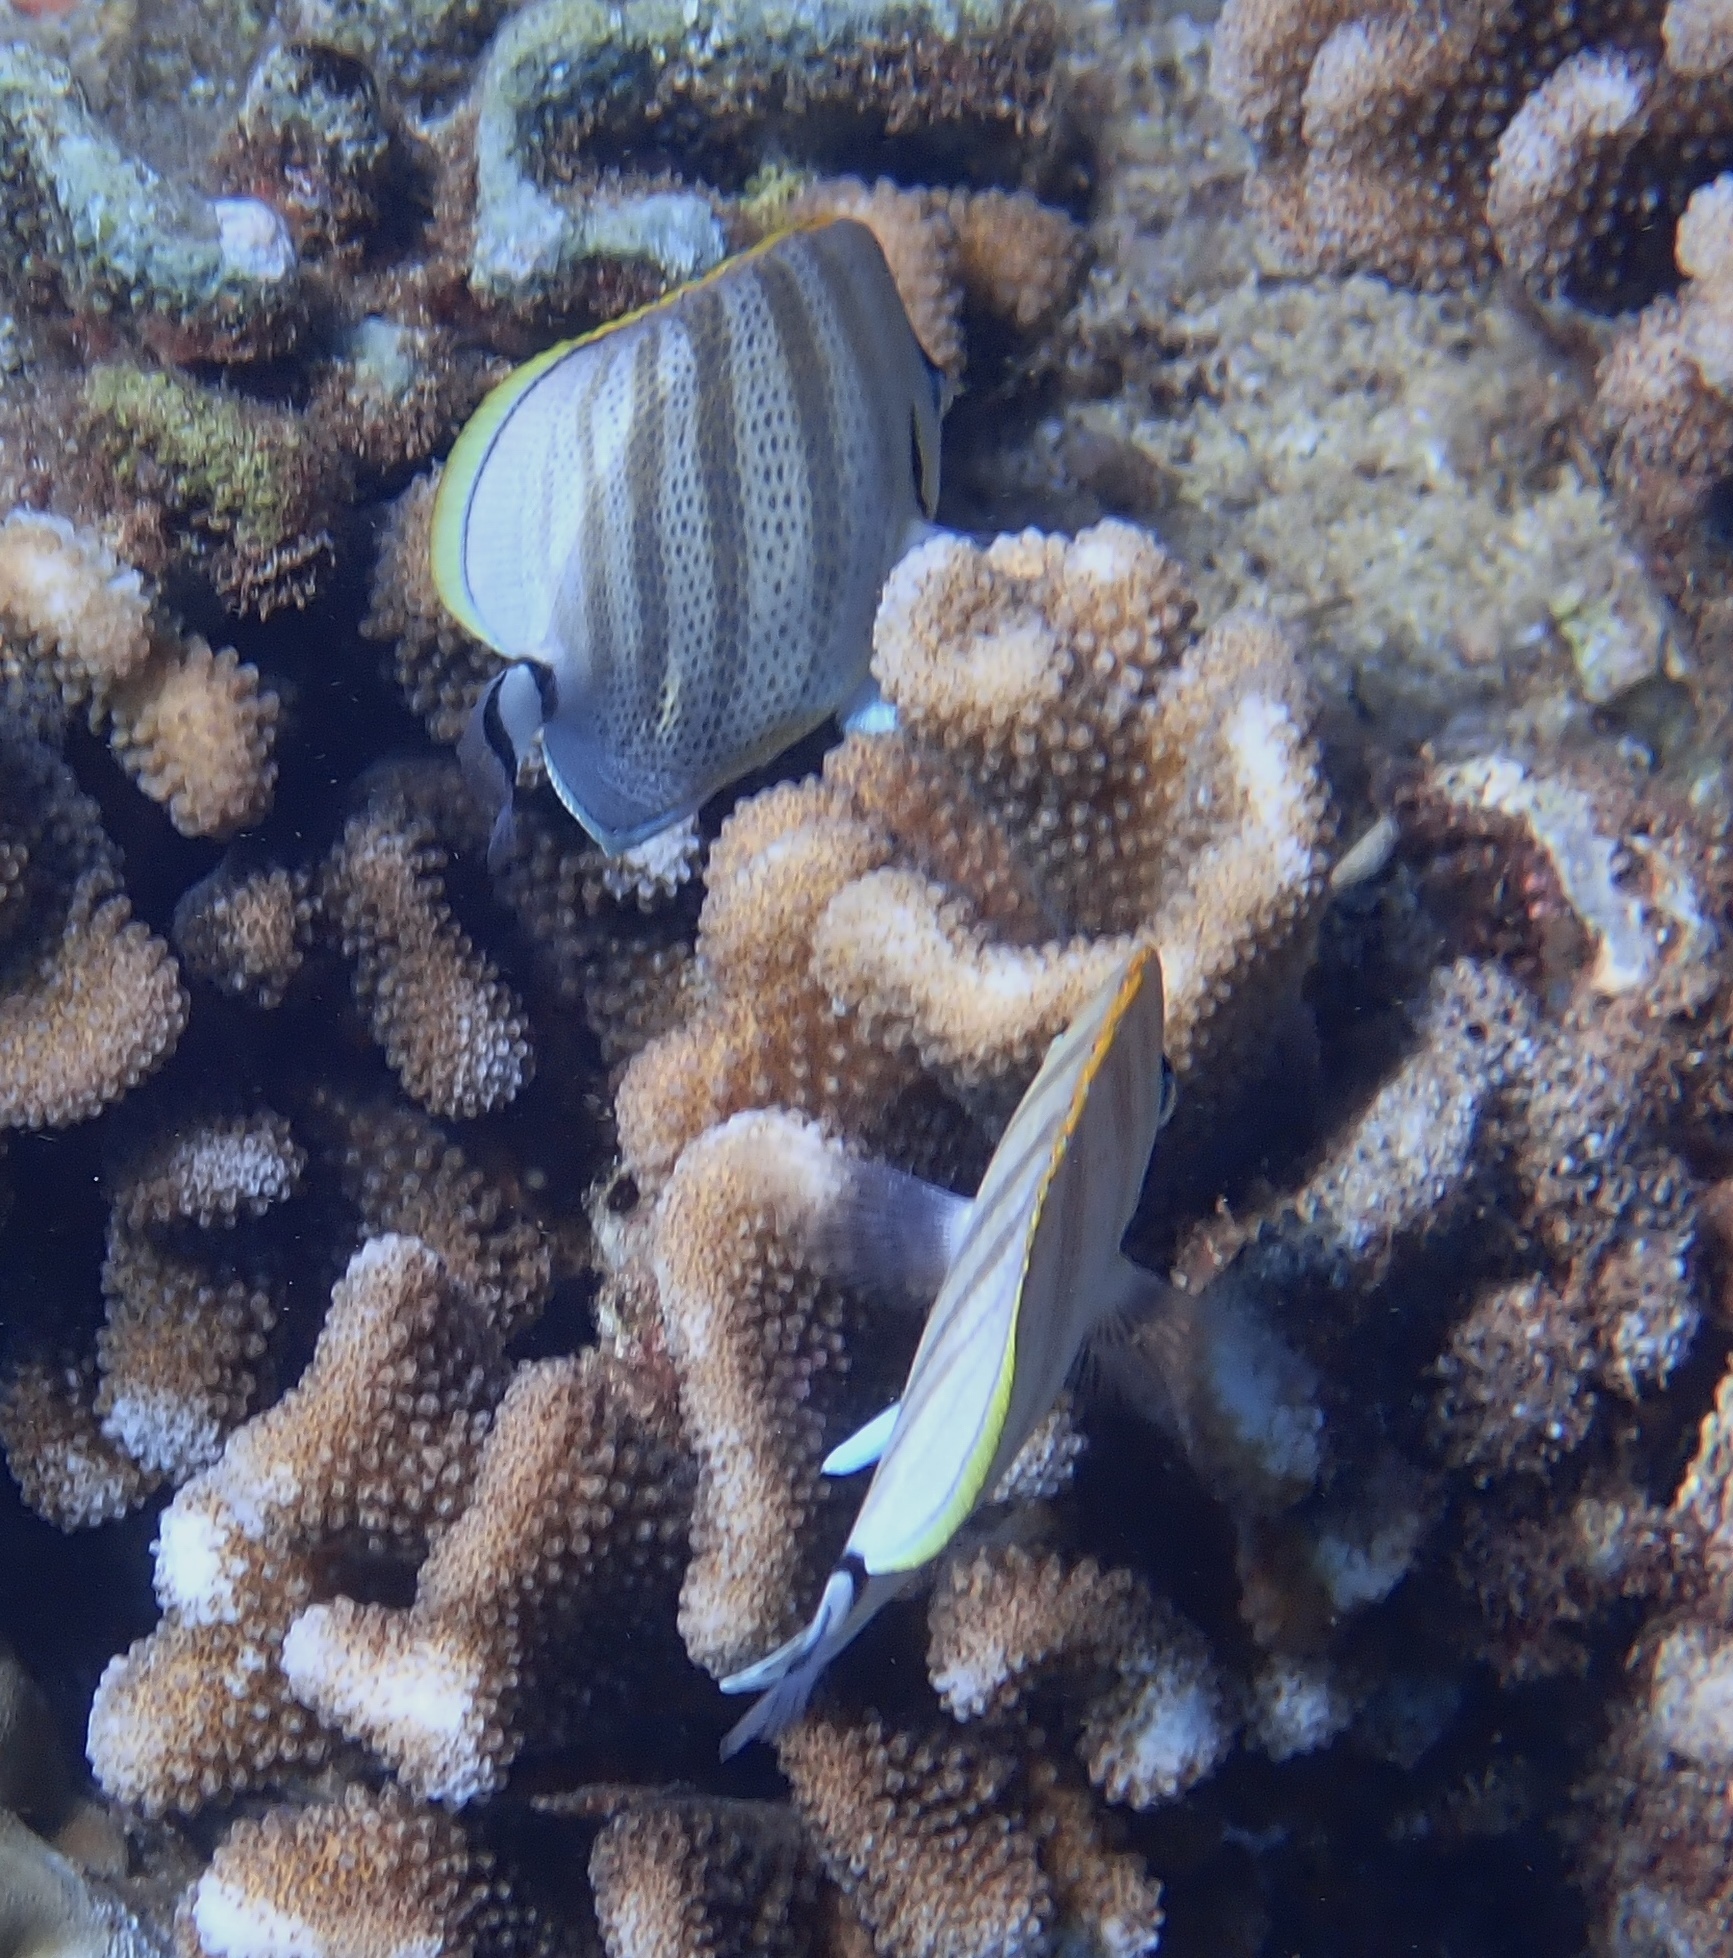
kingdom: Animalia
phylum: Chordata
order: Perciformes
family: Chaetodontidae
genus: Chaetodon
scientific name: Chaetodon multicinctus
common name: Multiband butterflyfish
